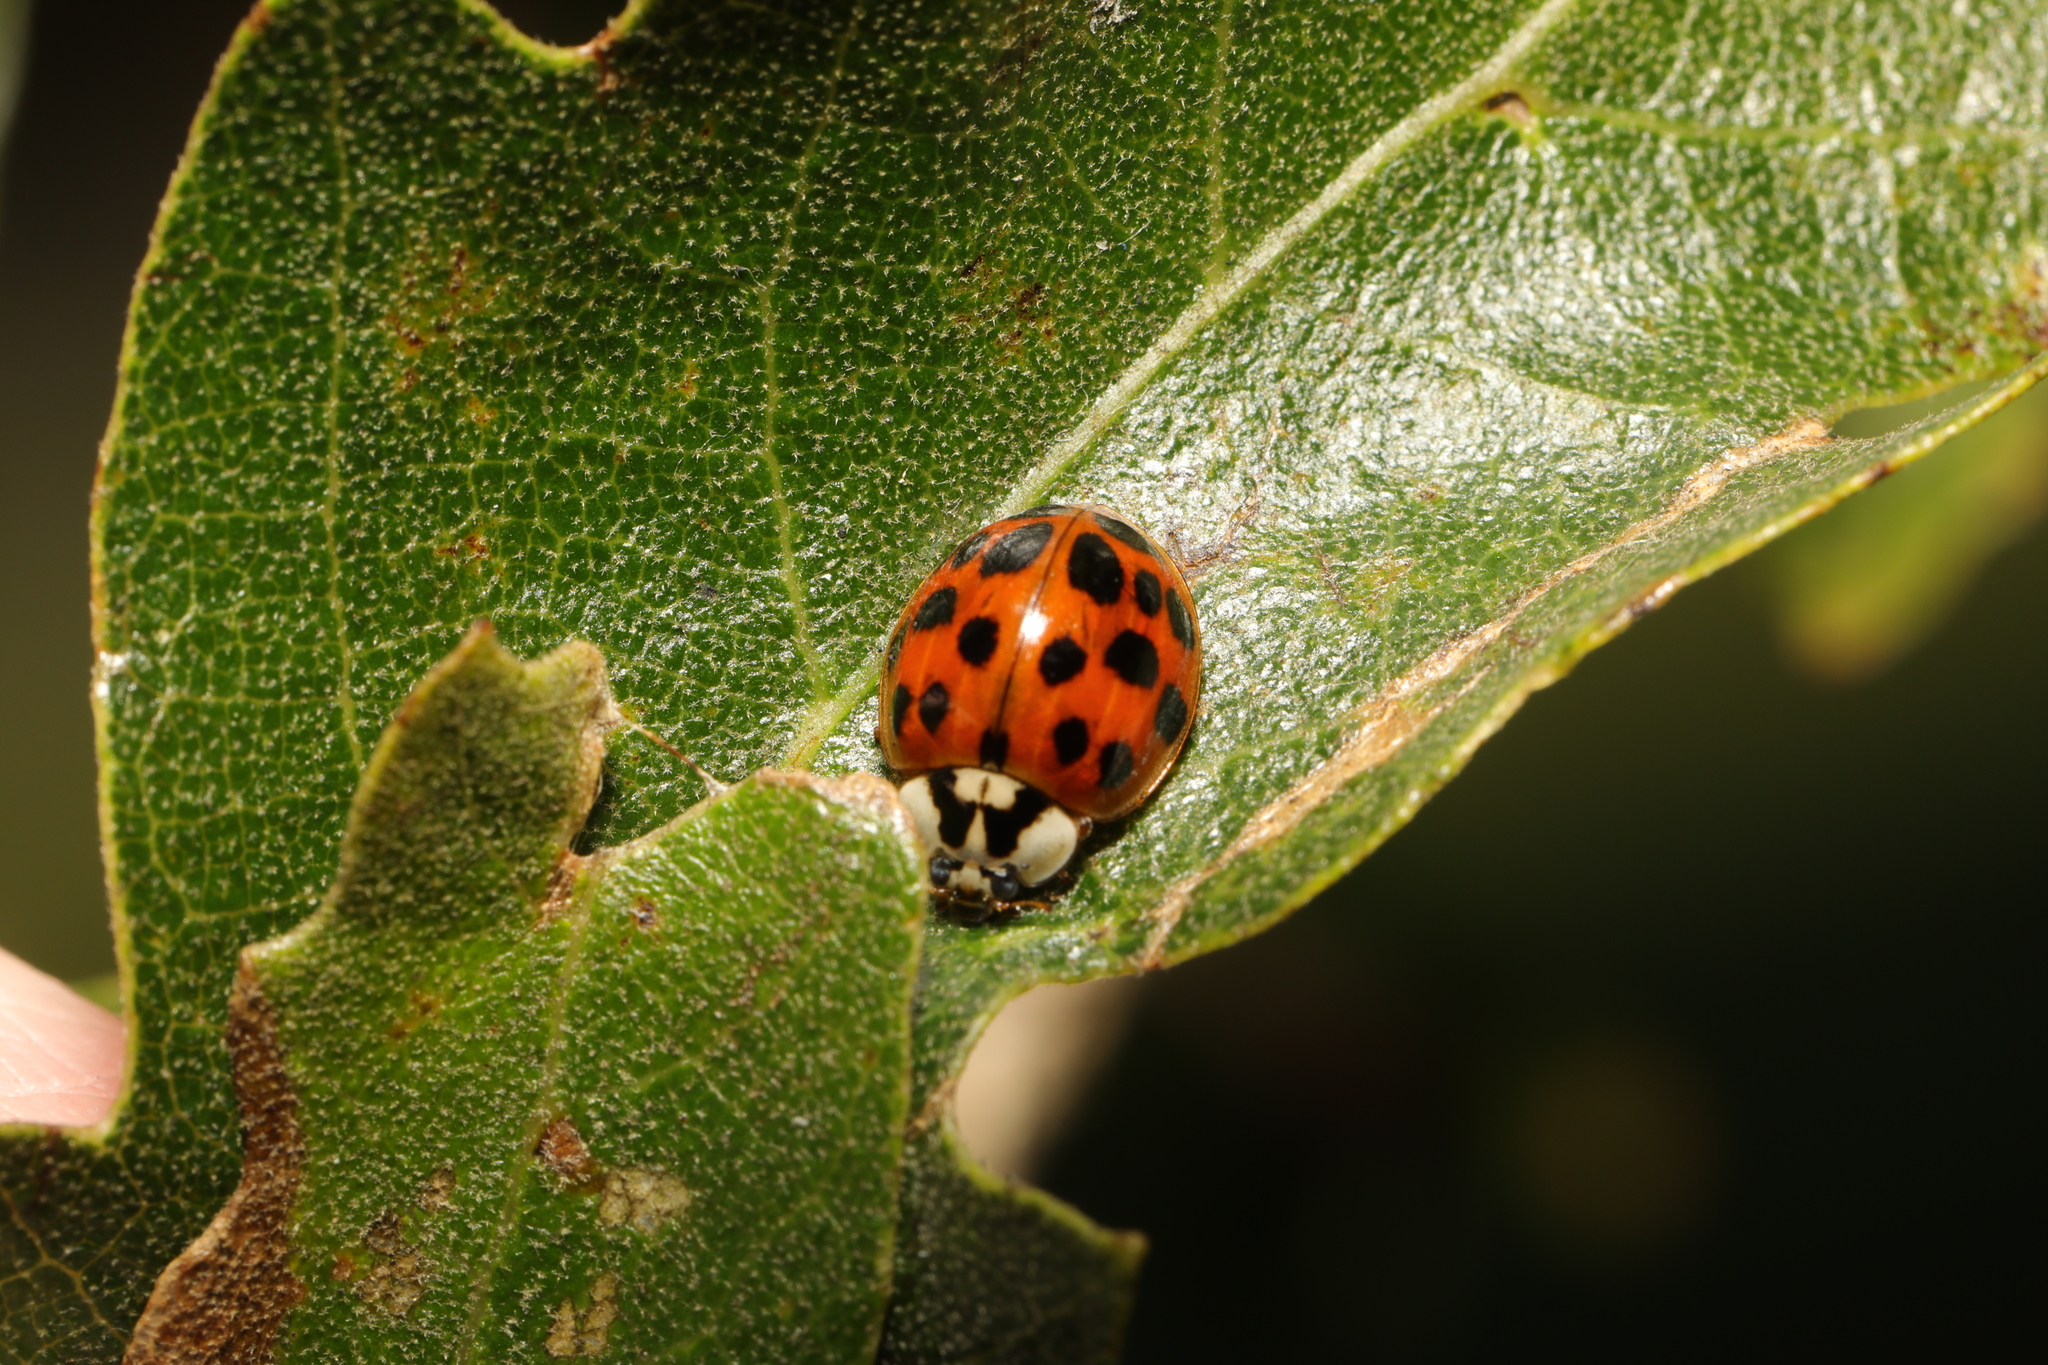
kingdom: Animalia
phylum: Arthropoda
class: Insecta
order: Coleoptera
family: Coccinellidae
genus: Harmonia
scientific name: Harmonia axyridis
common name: Harlequin ladybird
